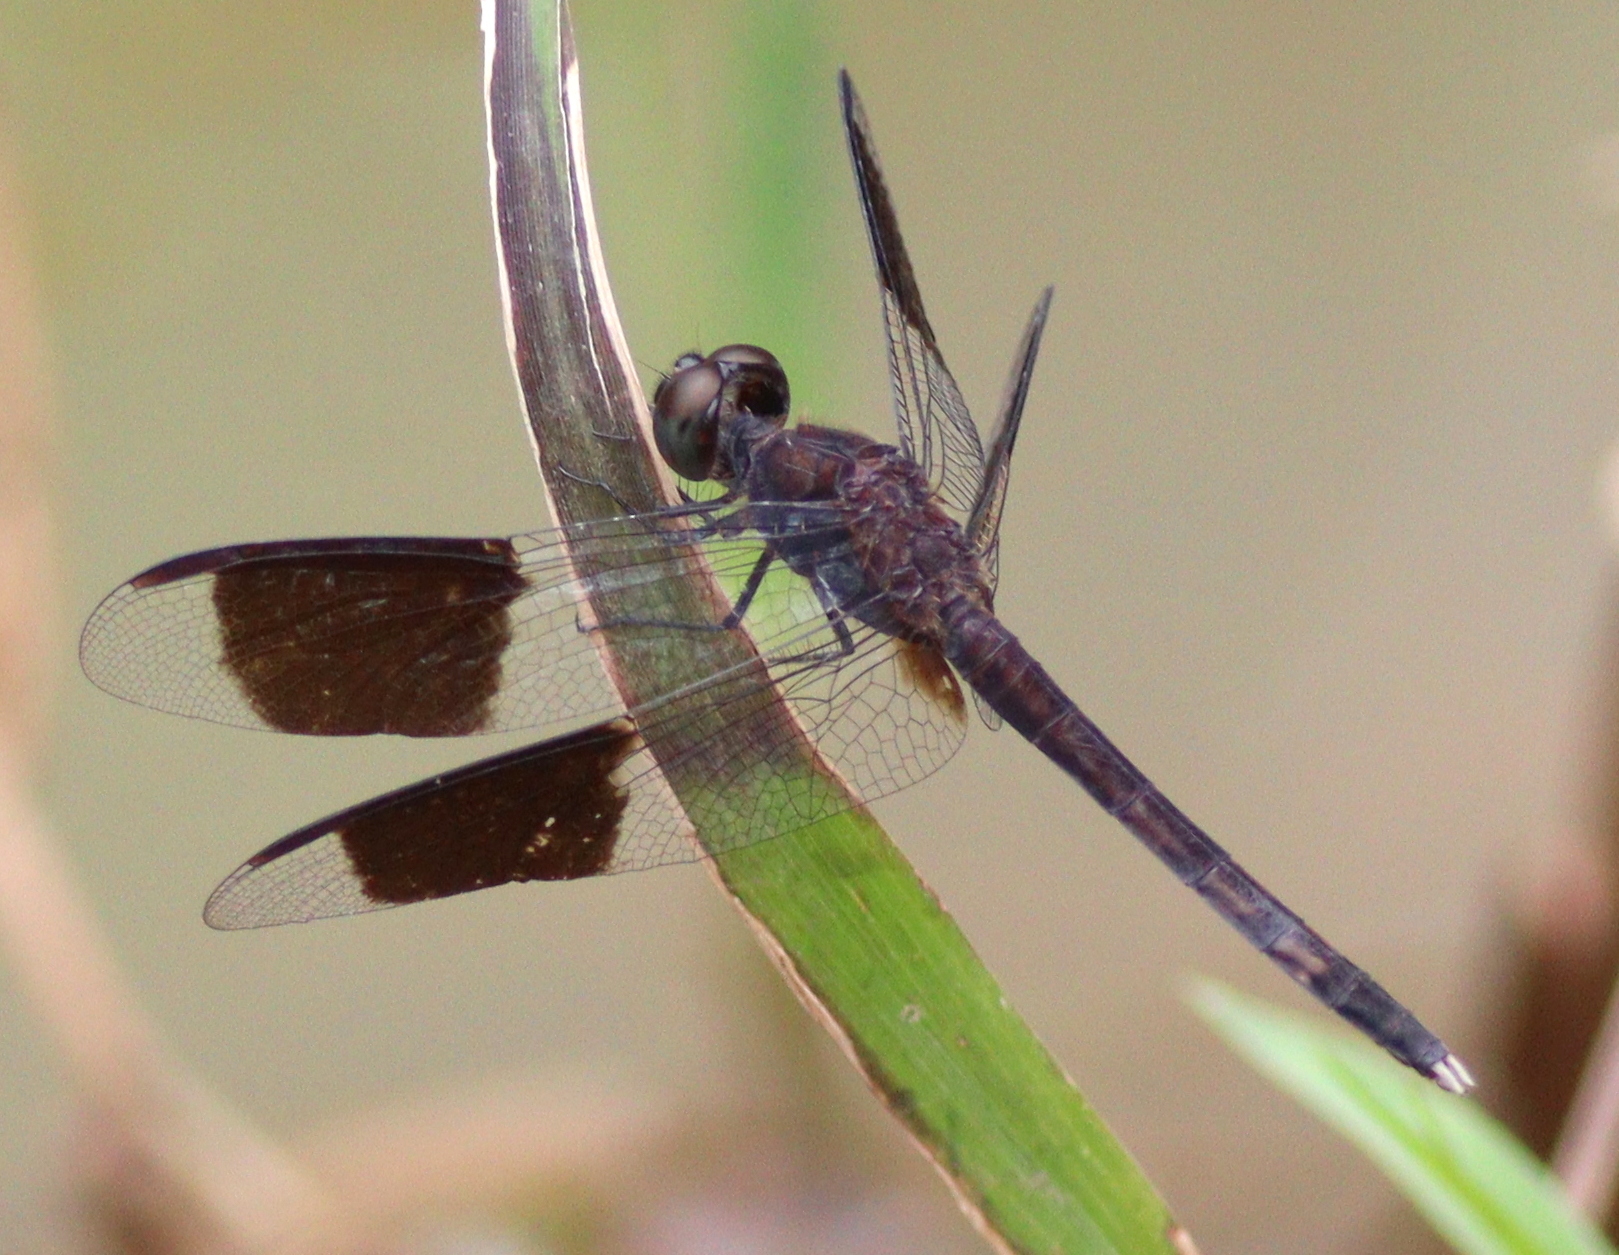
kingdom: Animalia
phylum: Arthropoda
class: Insecta
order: Odonata
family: Libellulidae
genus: Erythrodiplax
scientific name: Erythrodiplax umbrata
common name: Band-winged dragonlet
